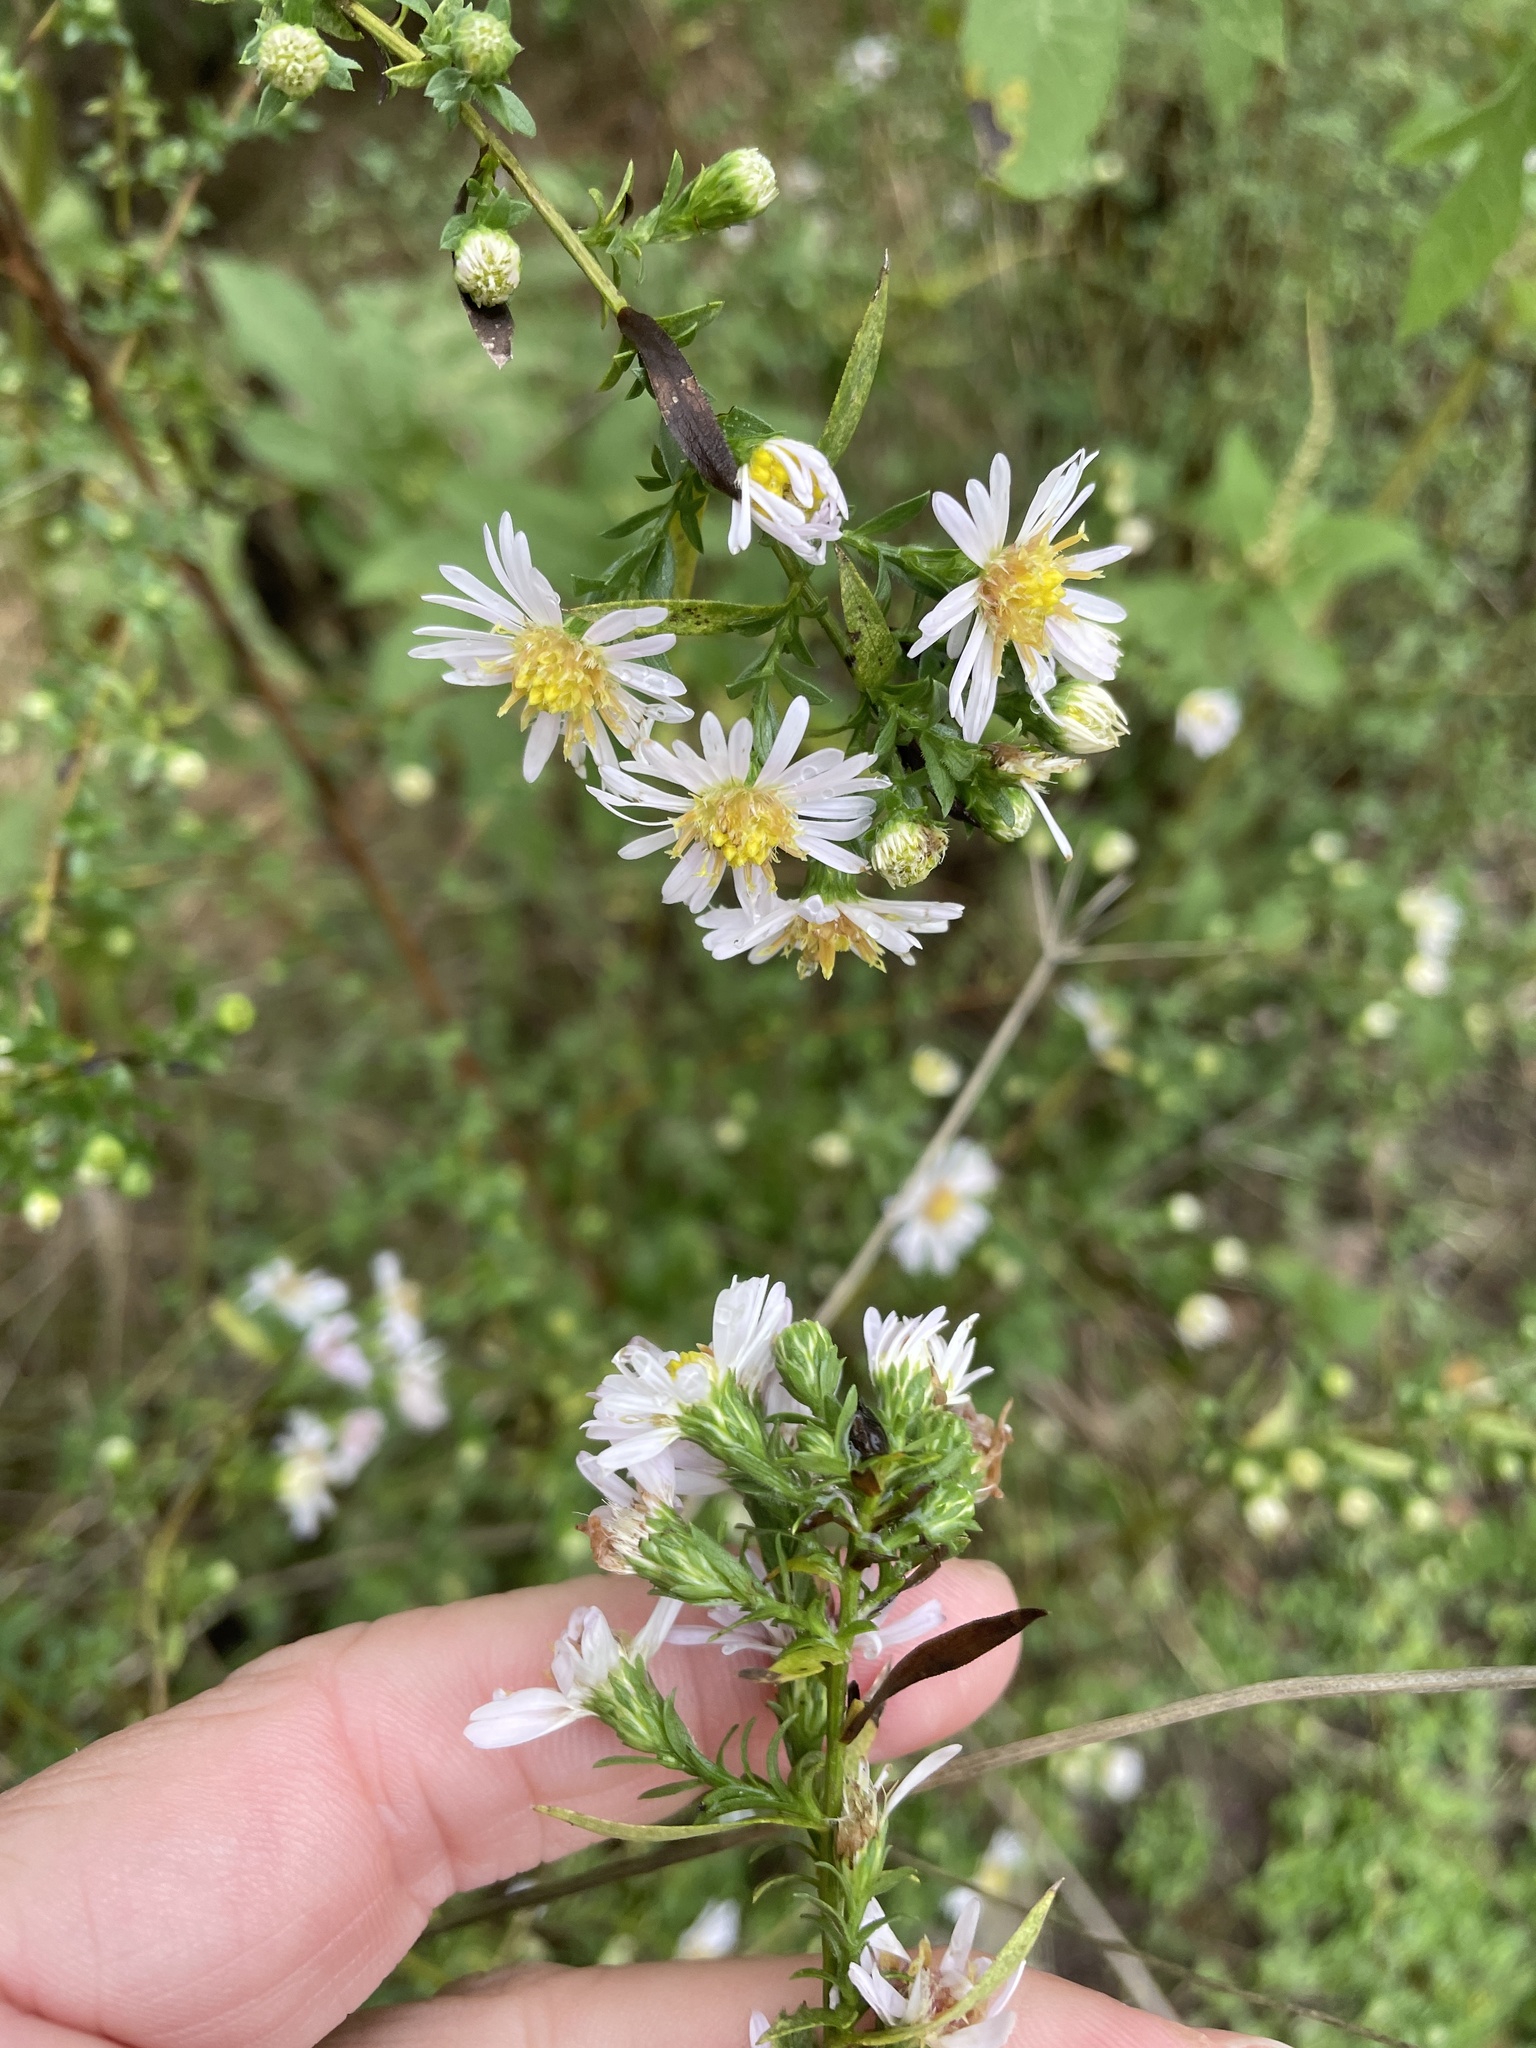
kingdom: Plantae
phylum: Tracheophyta
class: Magnoliopsida
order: Asterales
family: Asteraceae
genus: Symphyotrichum
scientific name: Symphyotrichum lanceolatum
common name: Panicled aster
